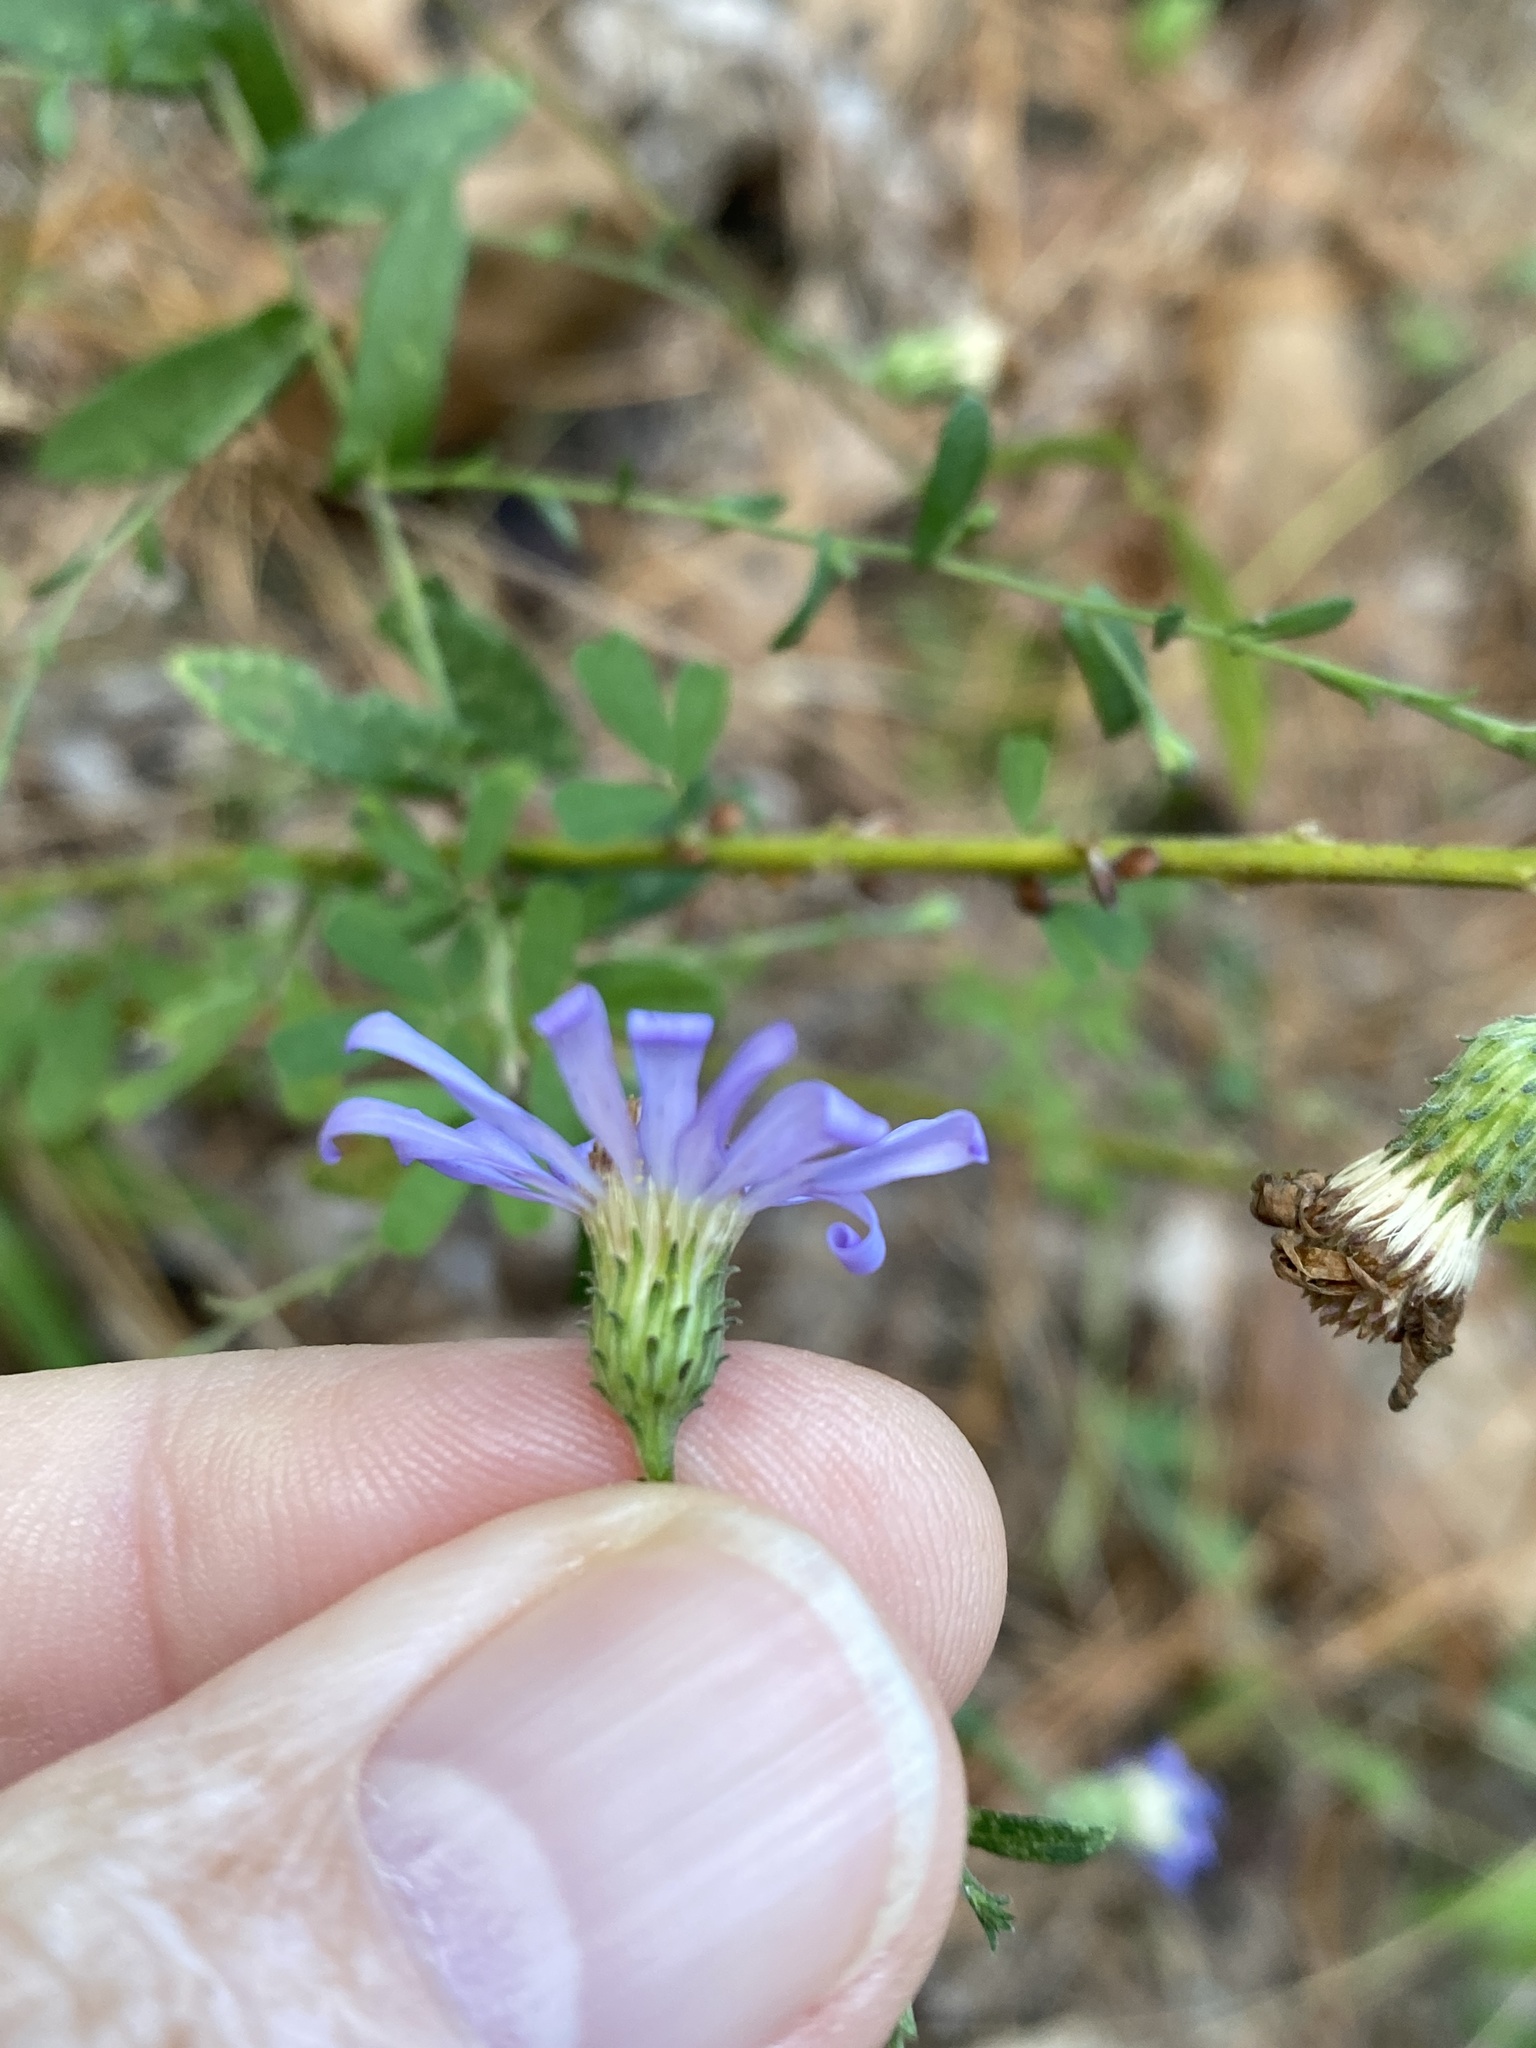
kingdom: Plantae
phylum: Tracheophyta
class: Magnoliopsida
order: Asterales
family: Asteraceae
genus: Symphyotrichum
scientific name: Symphyotrichum patens
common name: Late purple aster
